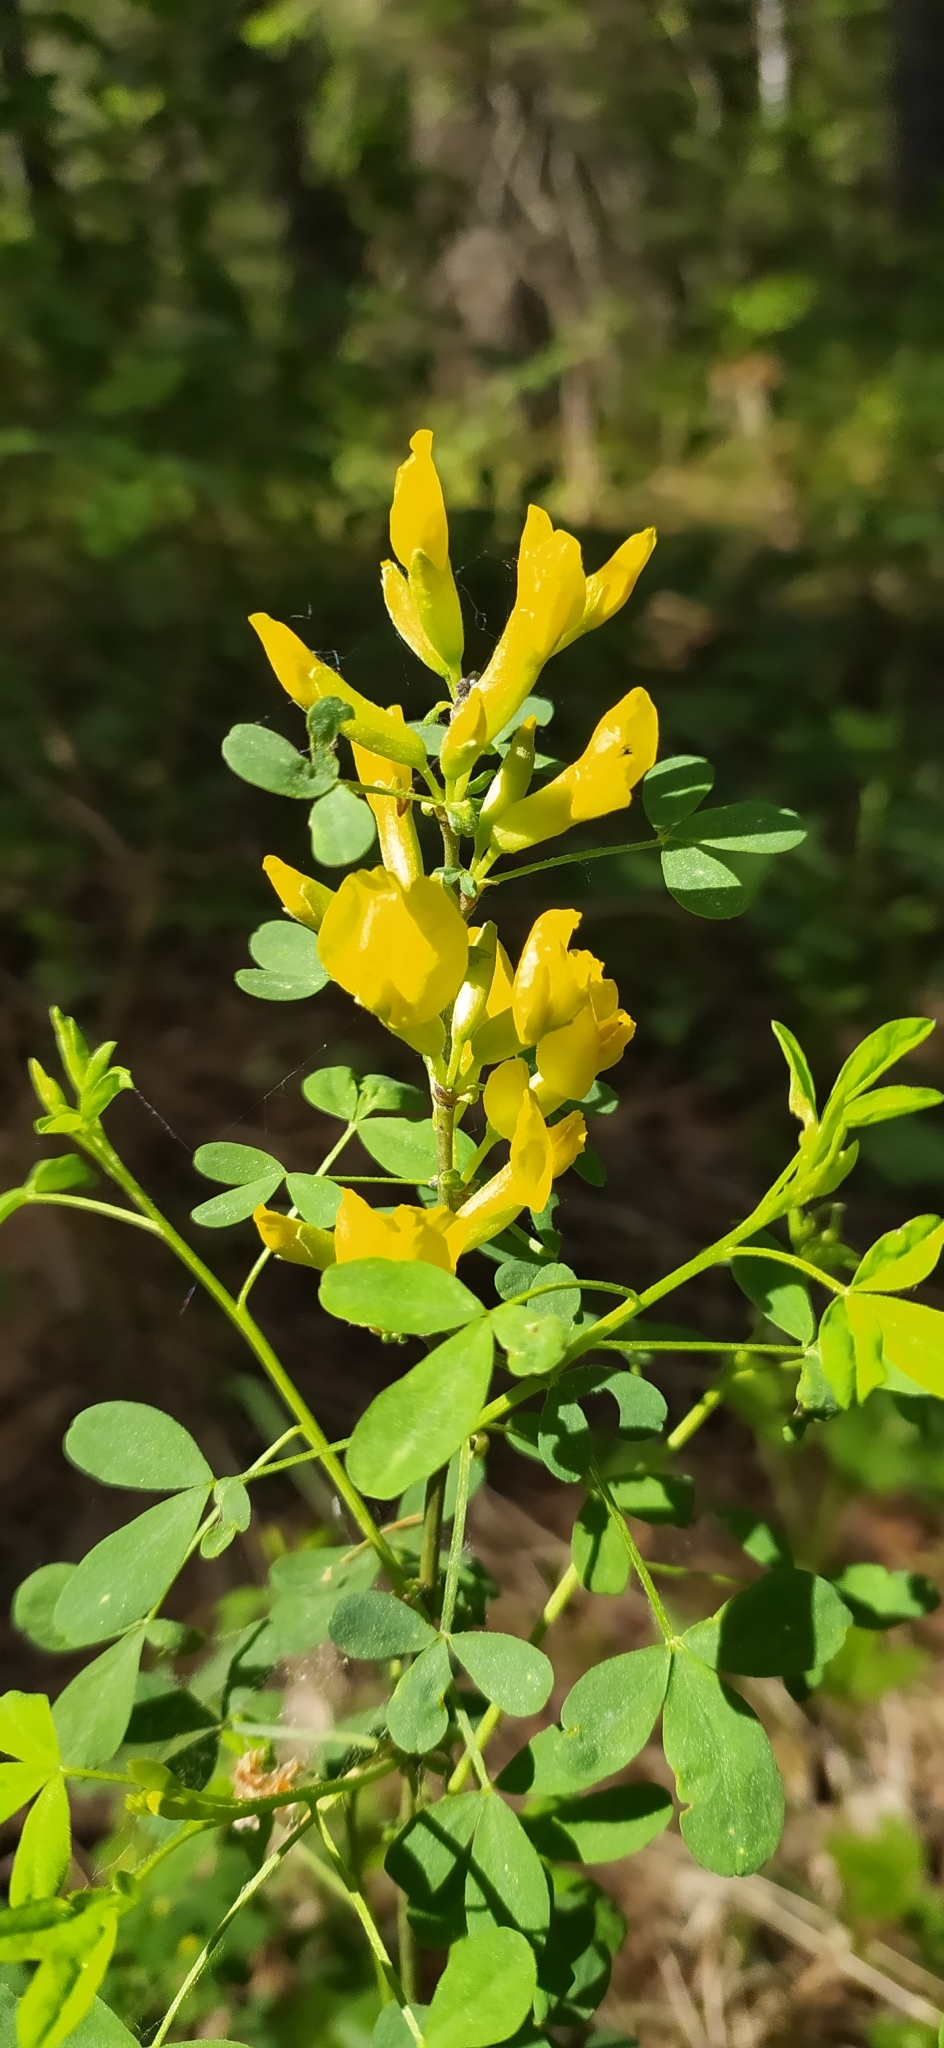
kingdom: Plantae
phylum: Tracheophyta
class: Magnoliopsida
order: Fabales
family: Fabaceae
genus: Chamaecytisus
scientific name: Chamaecytisus ruthenicus
